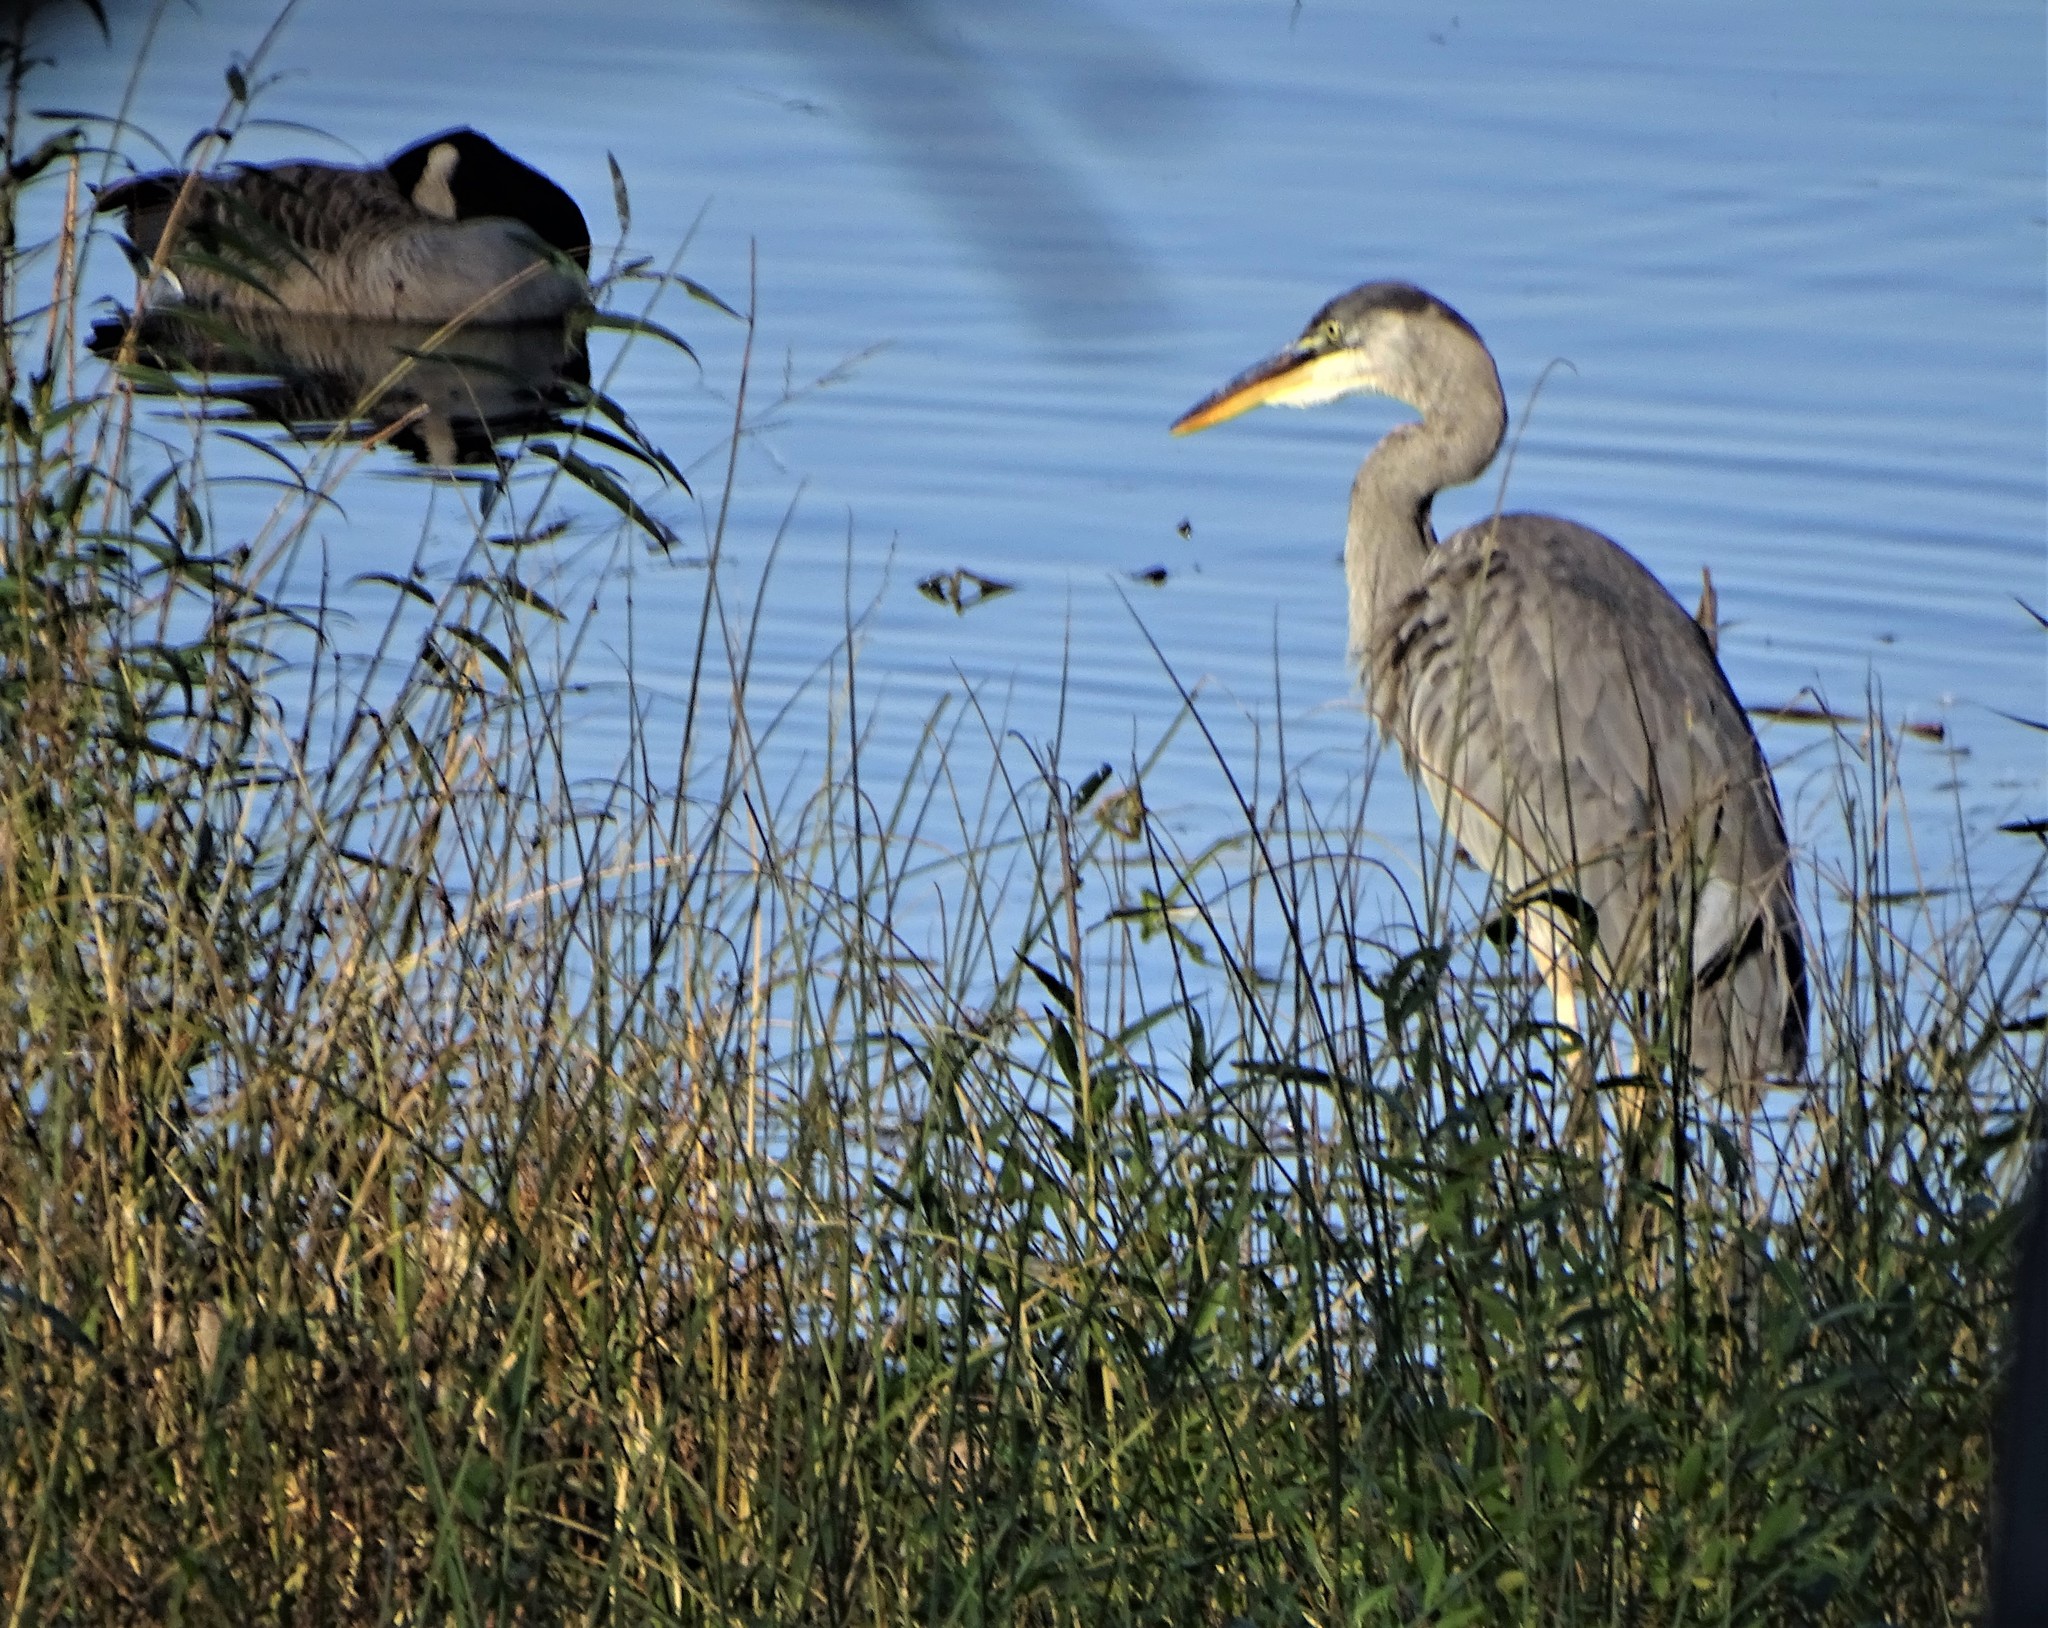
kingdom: Animalia
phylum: Chordata
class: Aves
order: Pelecaniformes
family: Ardeidae
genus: Ardea
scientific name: Ardea herodias
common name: Great blue heron
